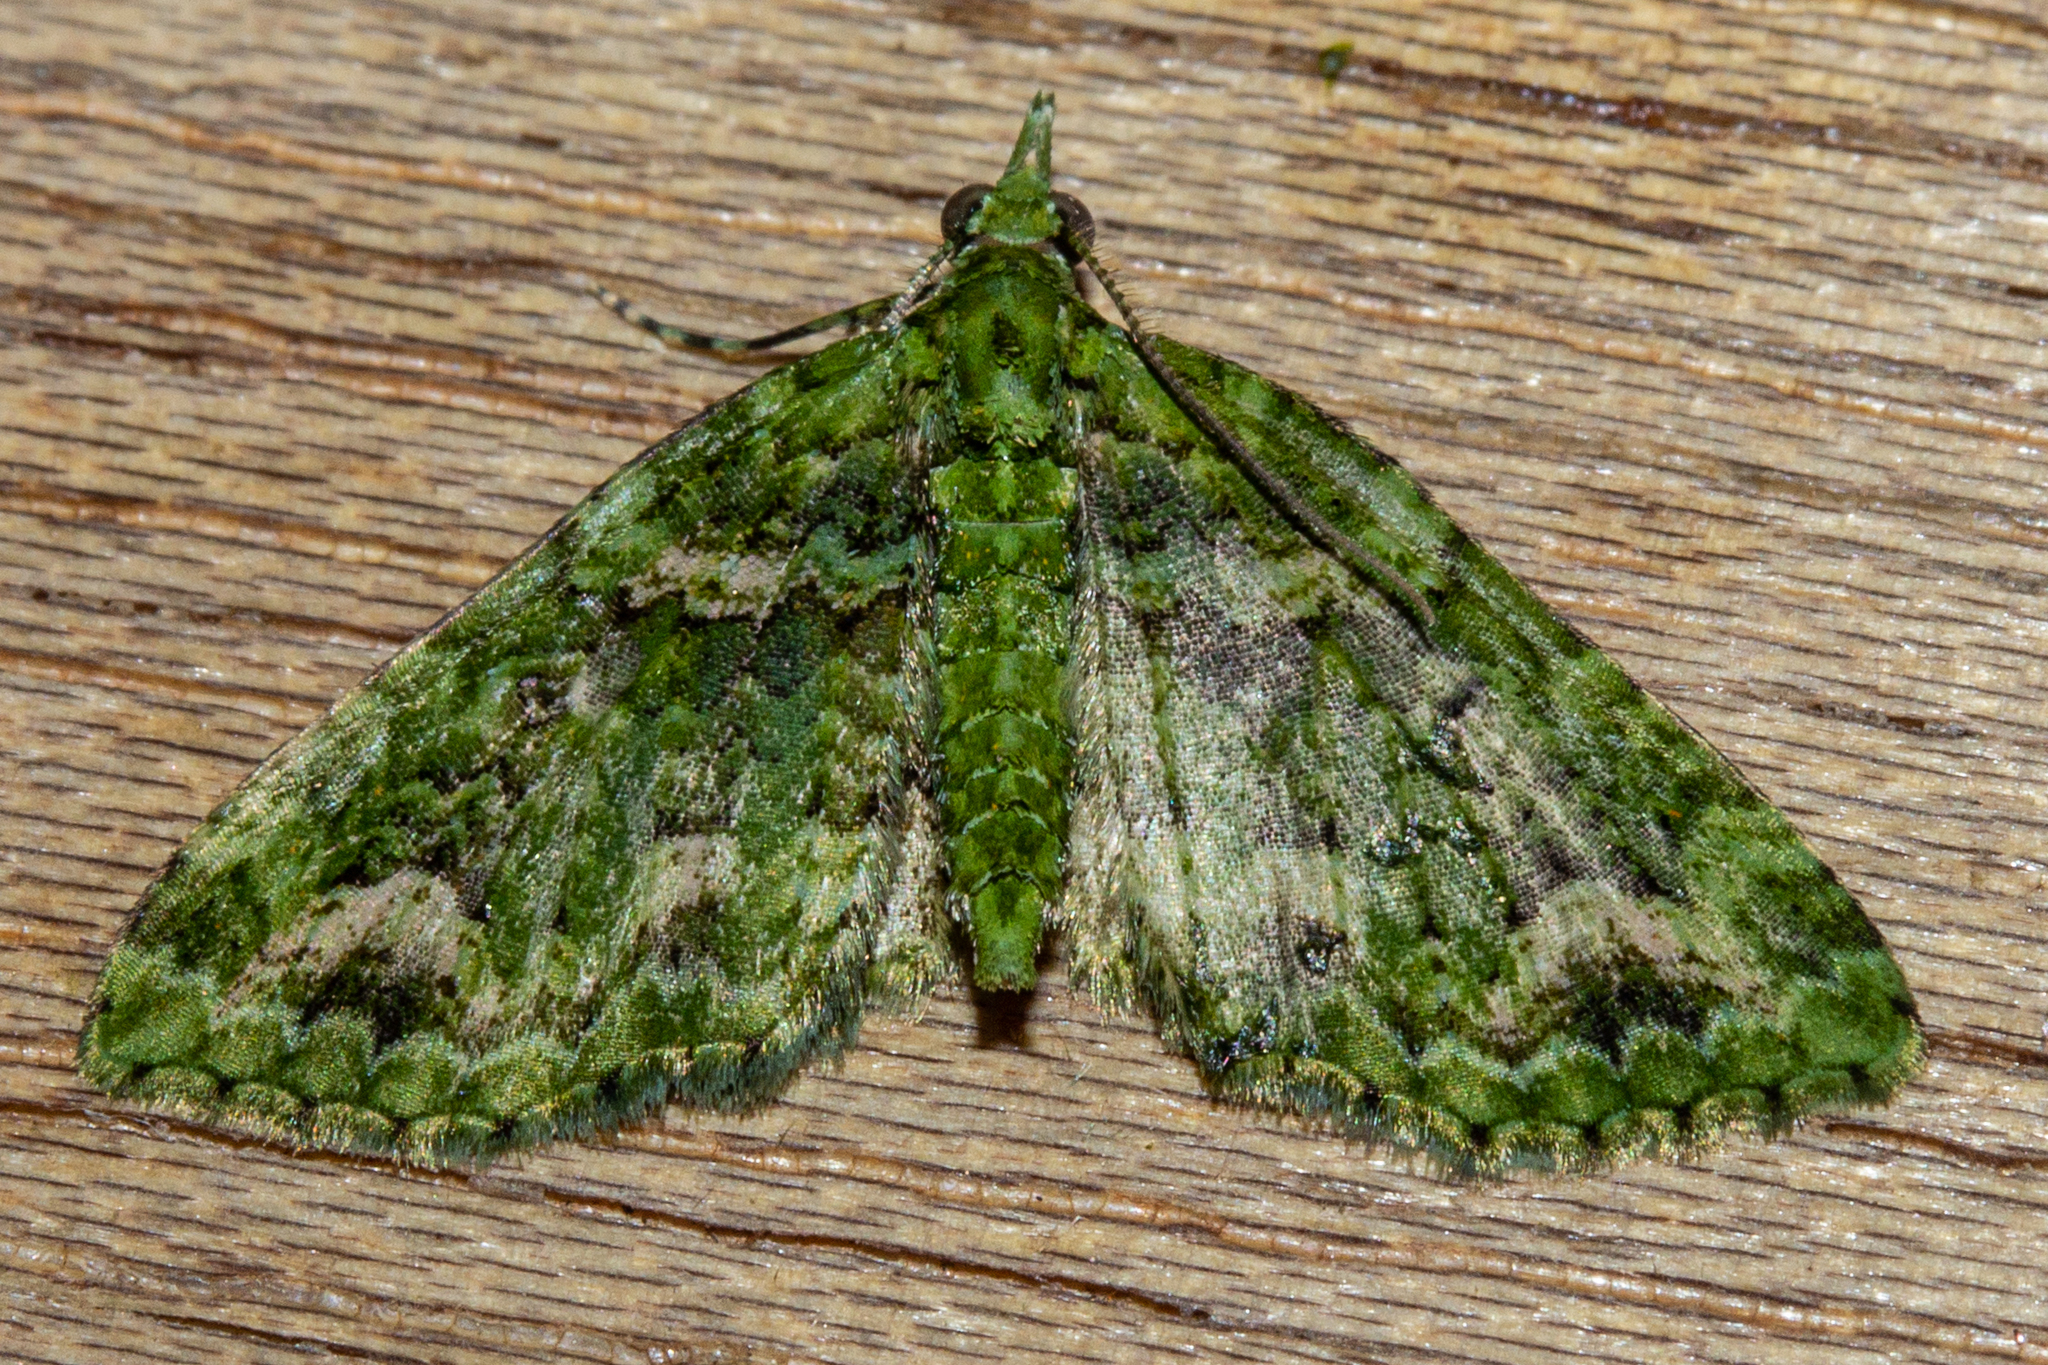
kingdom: Animalia
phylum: Arthropoda
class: Insecta
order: Lepidoptera
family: Geometridae
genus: Pasiphila
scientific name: Pasiphila muscosata
